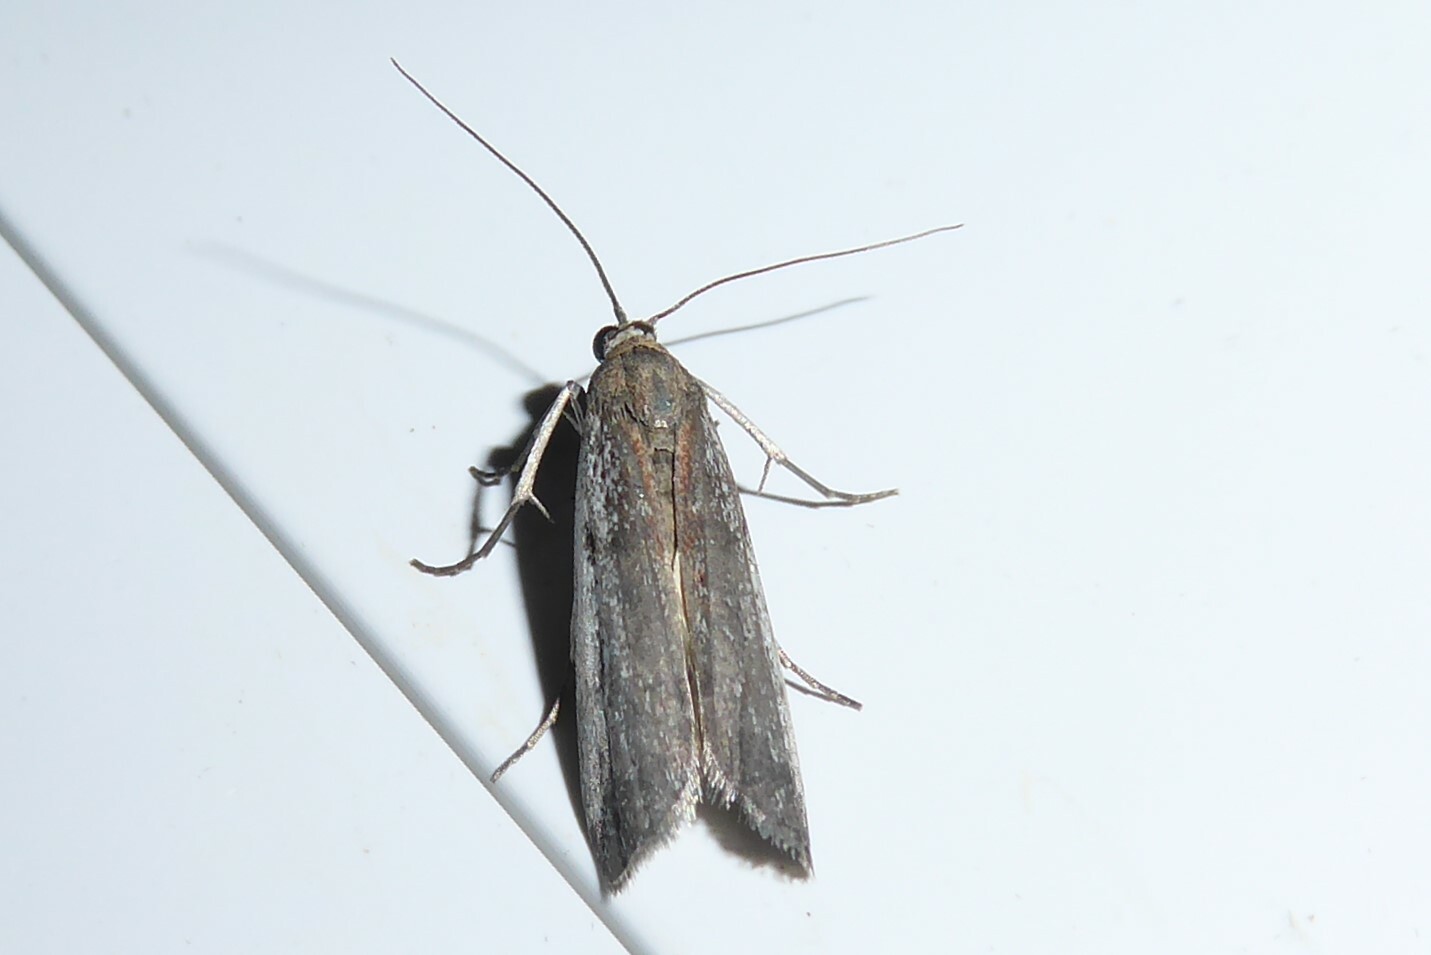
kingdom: Animalia
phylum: Arthropoda
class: Insecta
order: Lepidoptera
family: Pyralidae
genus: Patagoniodes
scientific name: Patagoniodes farinaria
